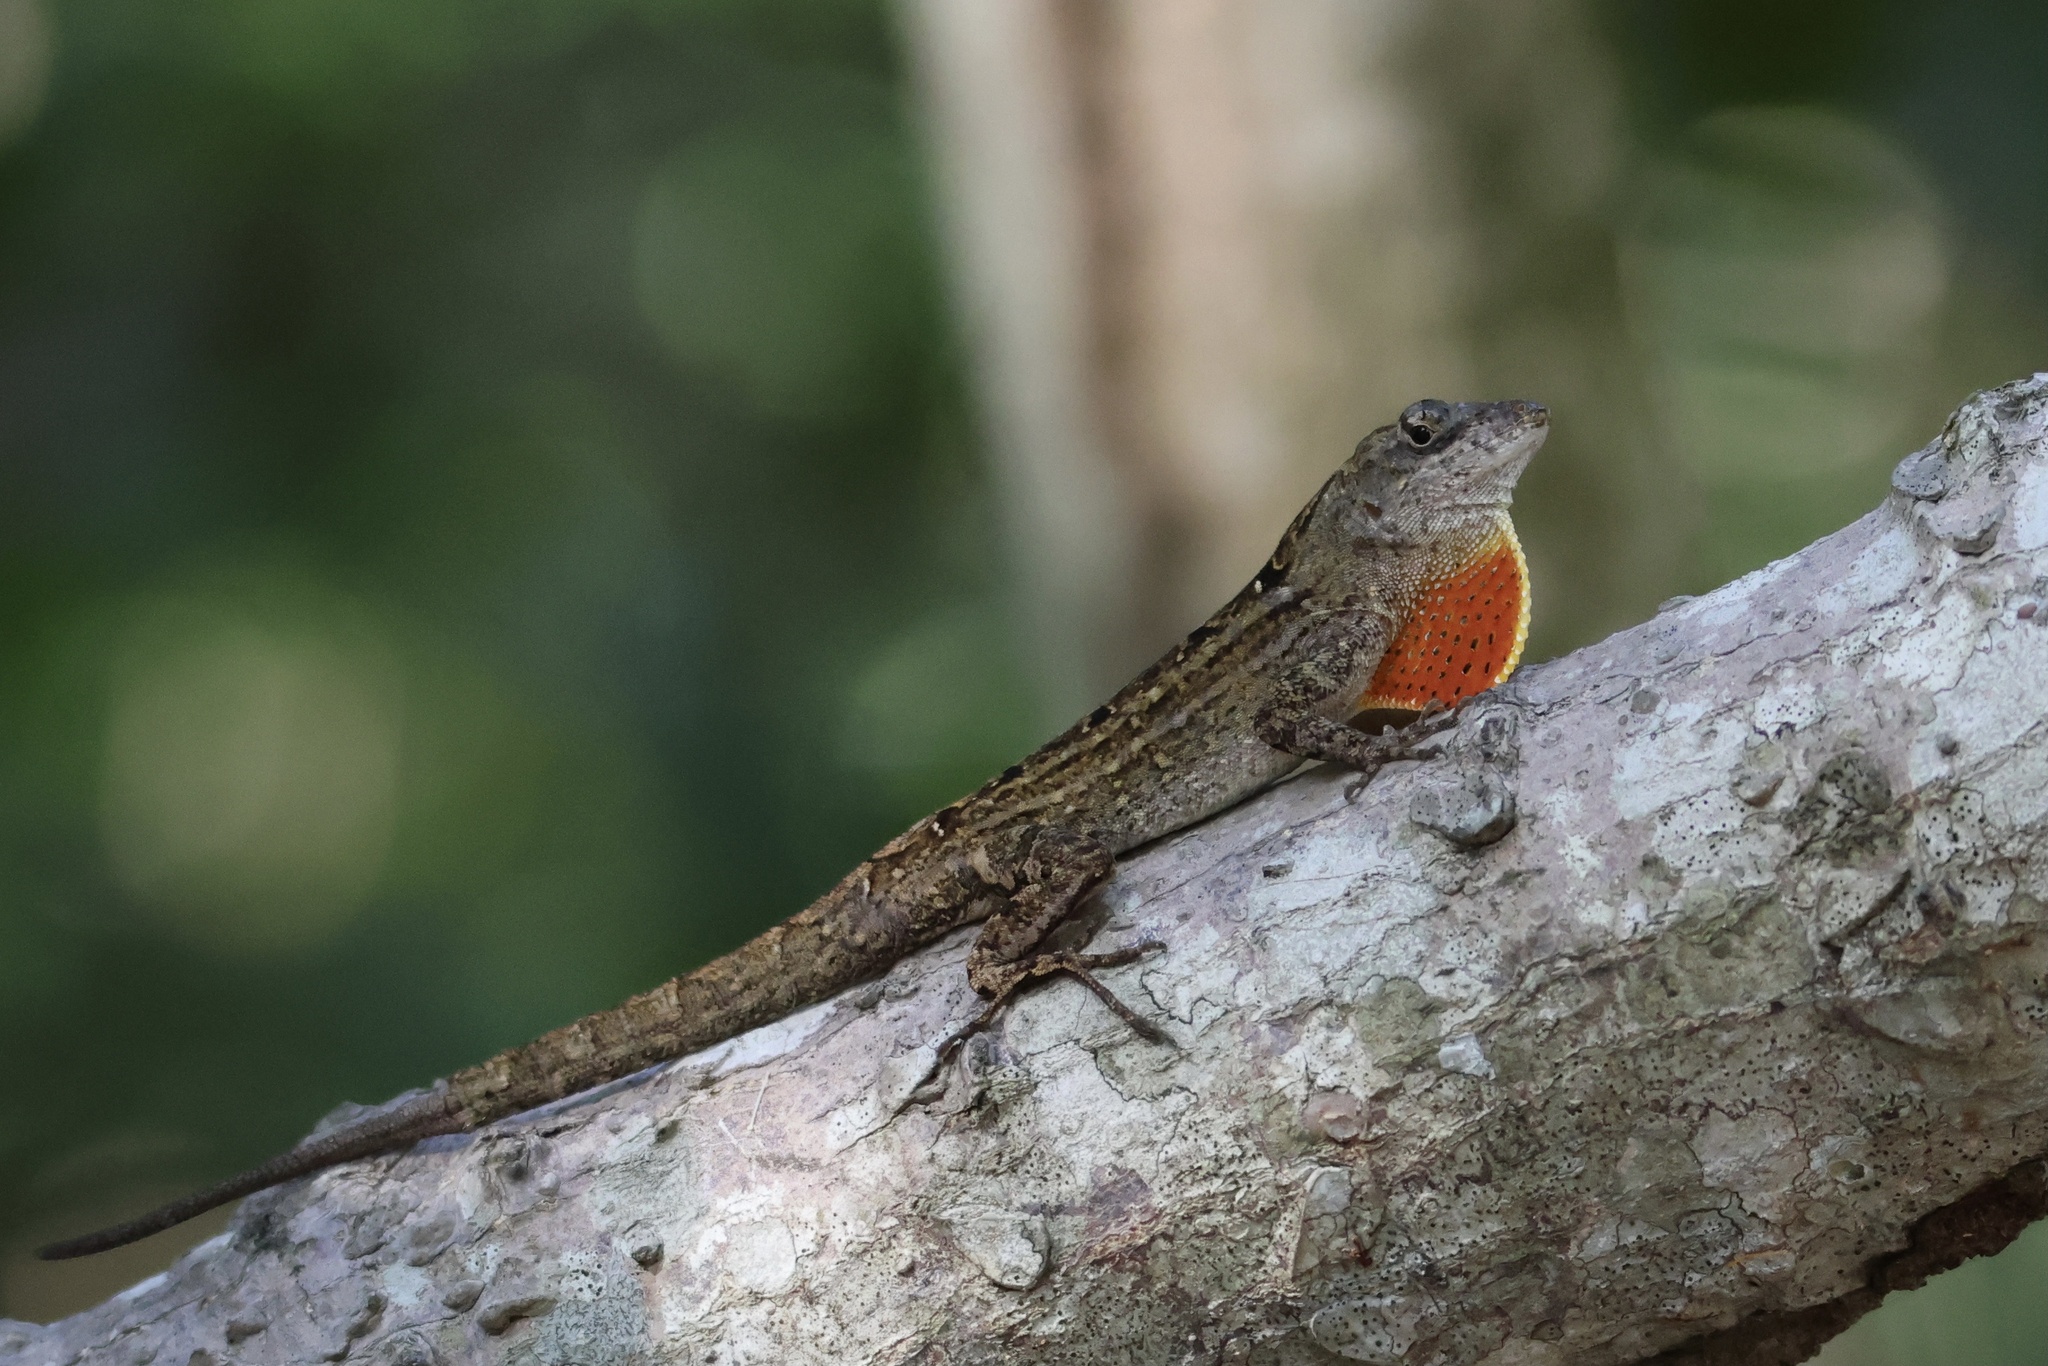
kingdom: Animalia
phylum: Chordata
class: Squamata
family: Dactyloidae
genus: Anolis
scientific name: Anolis sagrei
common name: Brown anole
